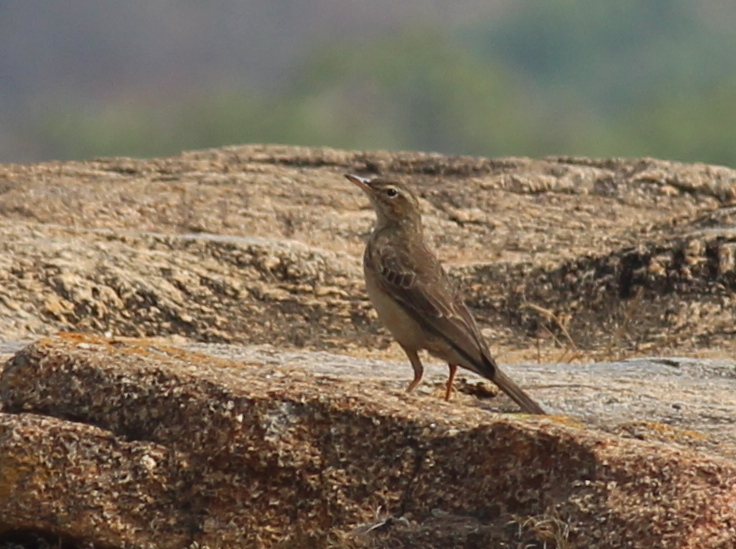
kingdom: Animalia
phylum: Chordata
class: Aves
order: Passeriformes
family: Motacillidae
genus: Anthus
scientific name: Anthus similis
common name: Long-billed pipit
